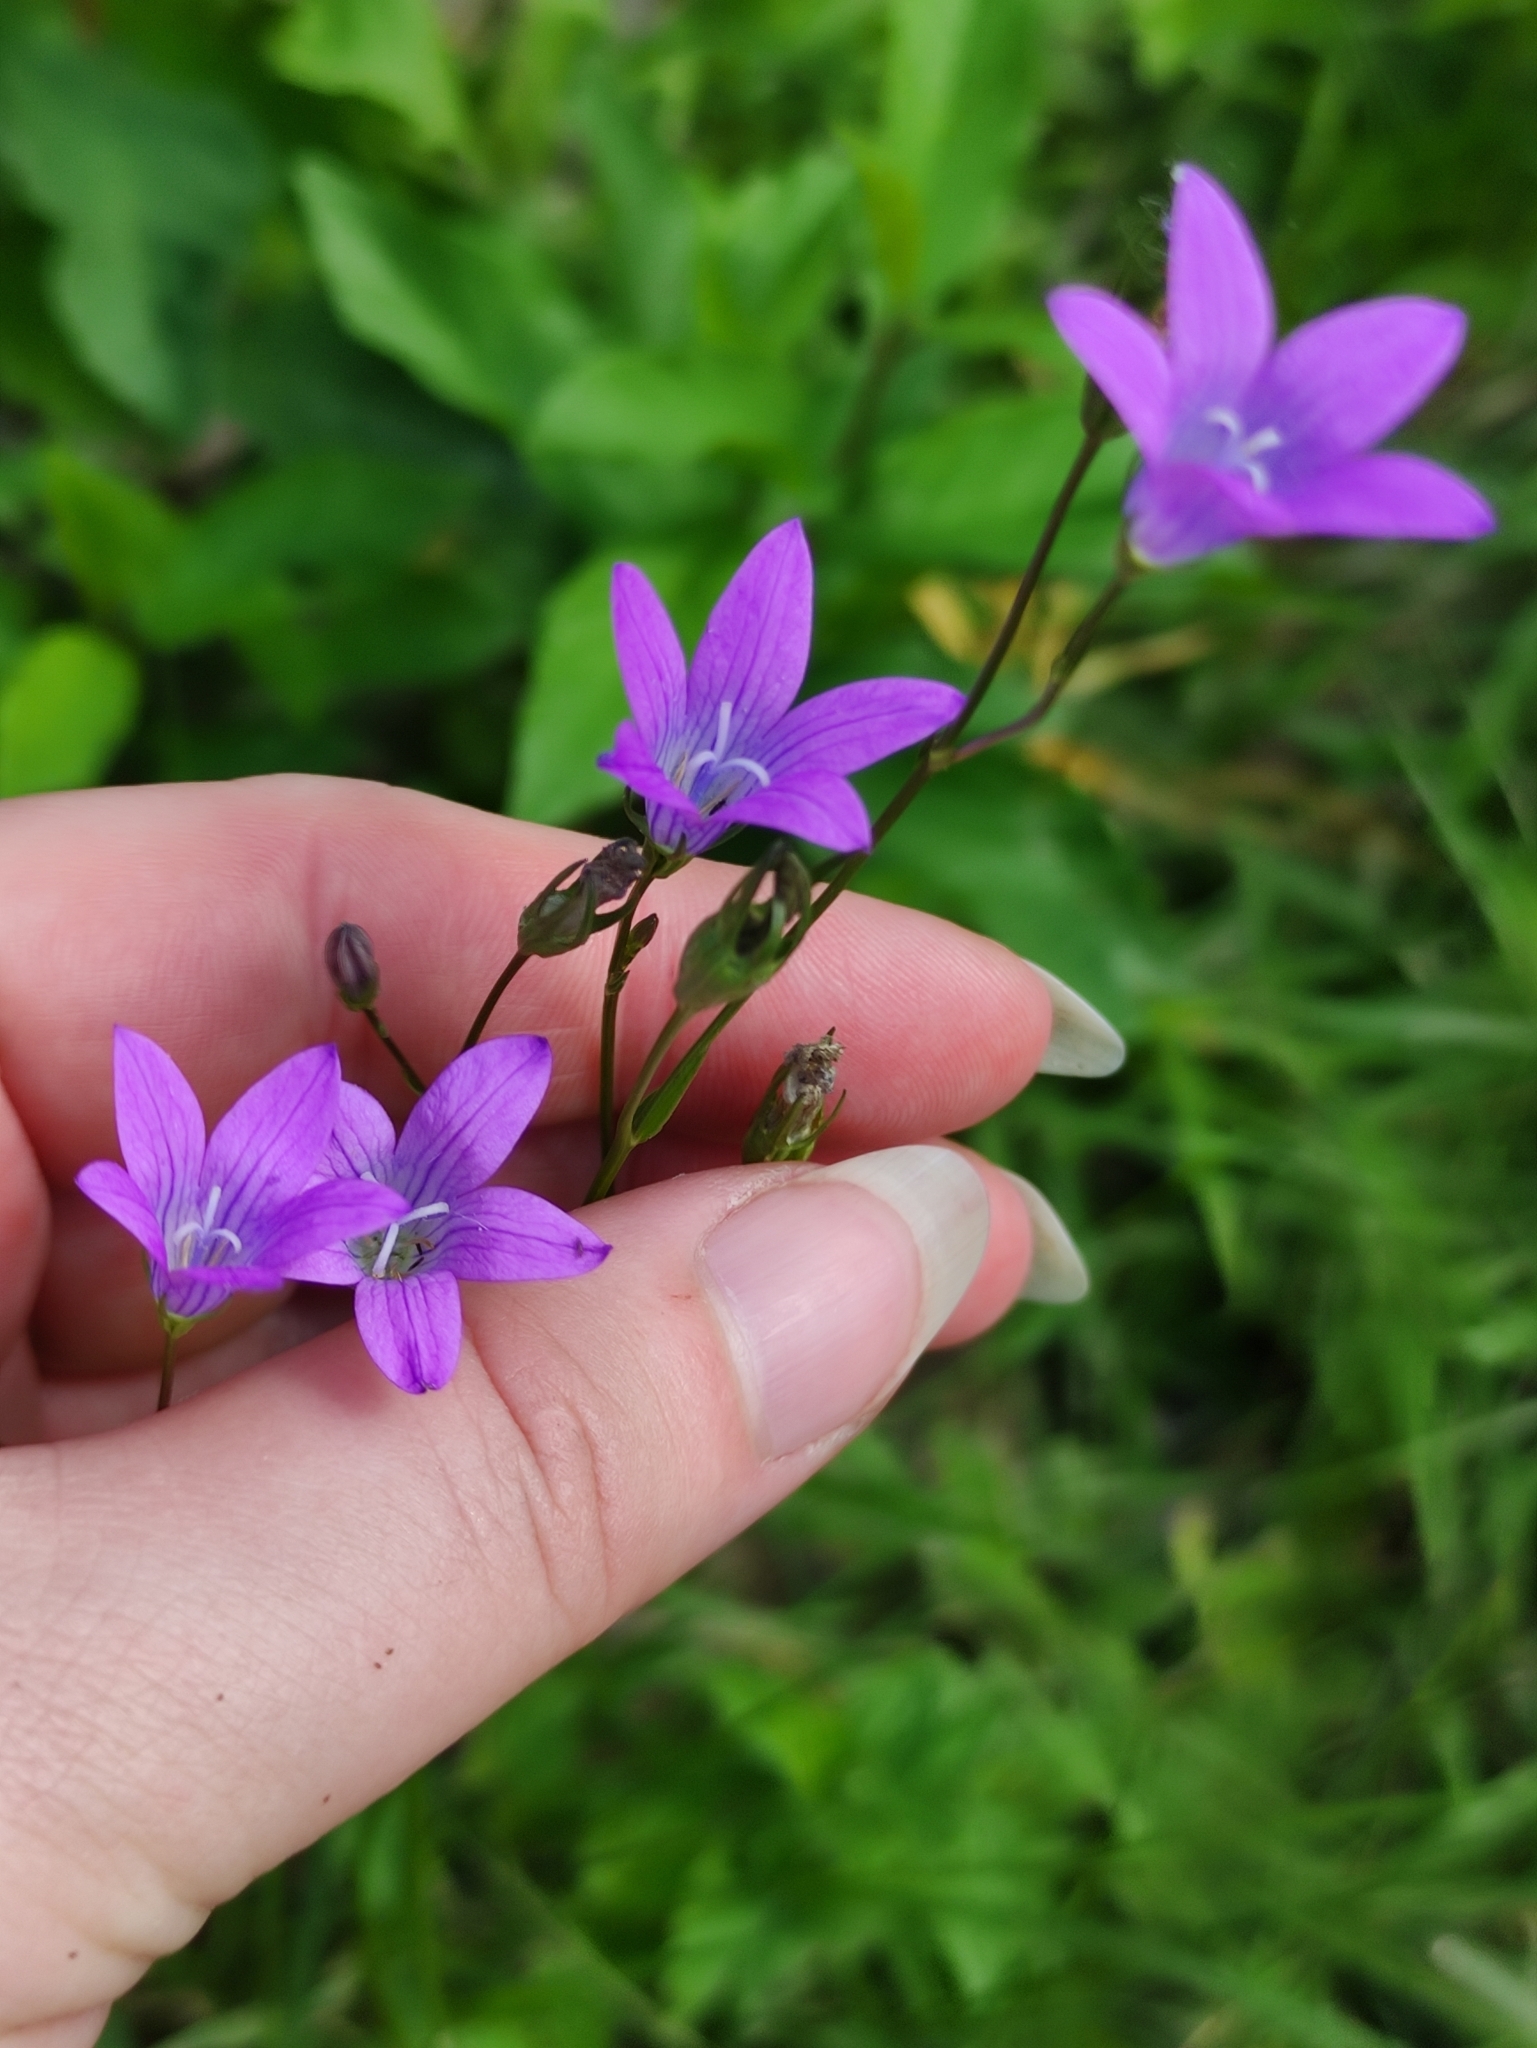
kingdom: Plantae
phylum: Tracheophyta
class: Magnoliopsida
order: Asterales
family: Campanulaceae
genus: Campanula
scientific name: Campanula patula
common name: Spreading bellflower
